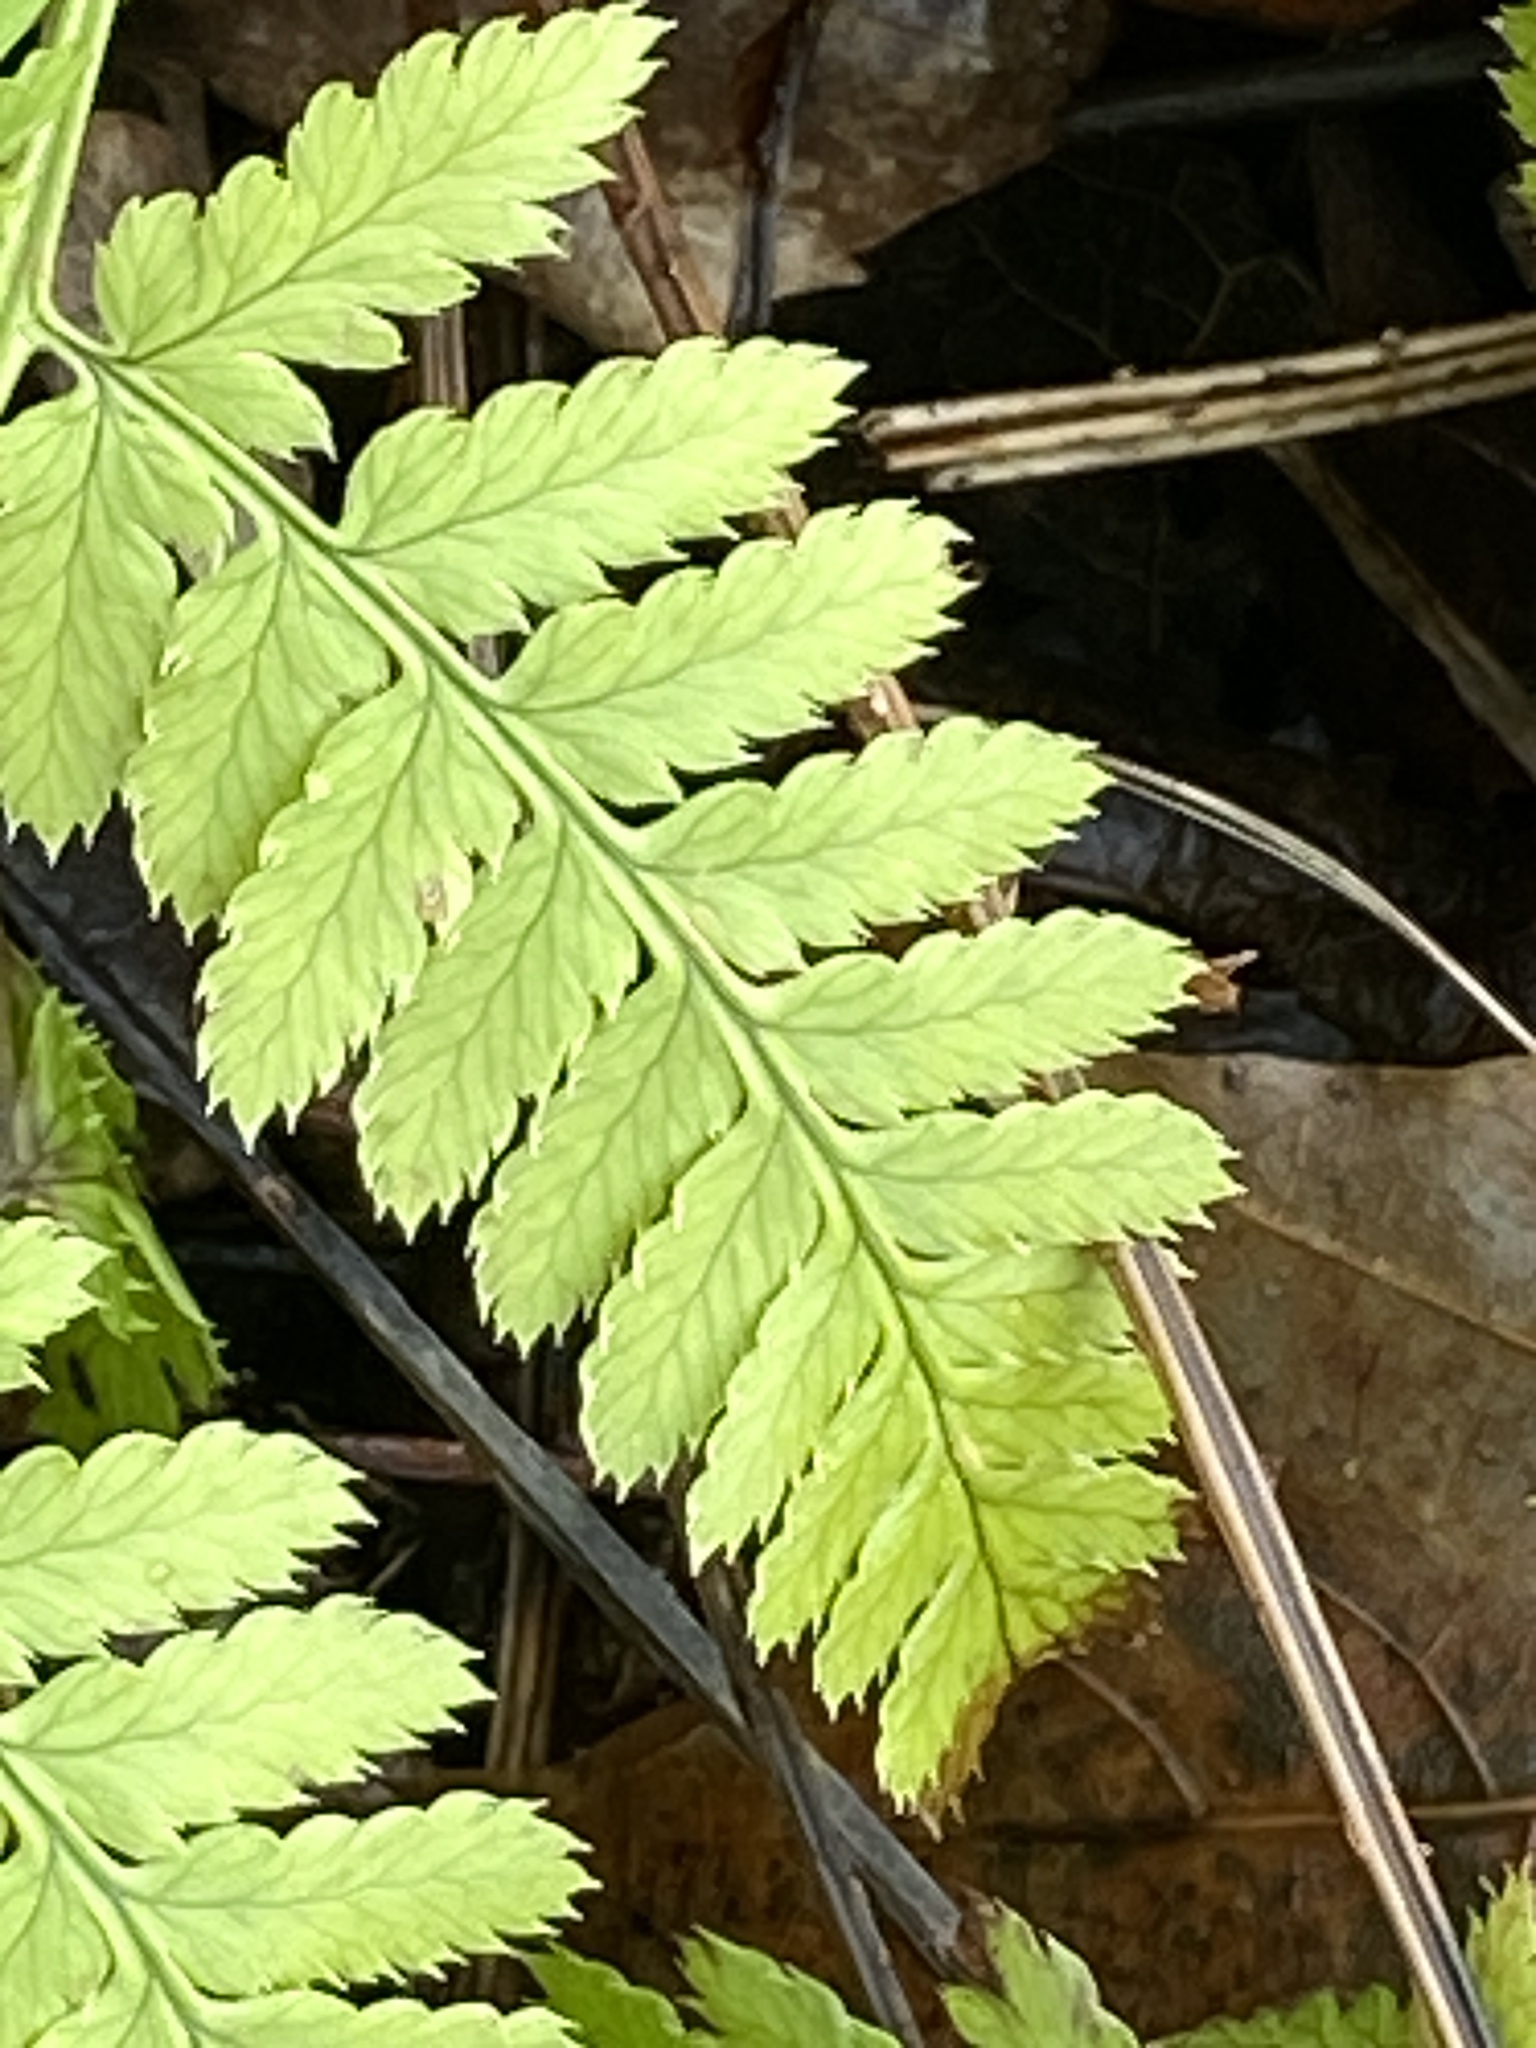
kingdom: Plantae
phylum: Tracheophyta
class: Polypodiopsida
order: Polypodiales
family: Dryopteridaceae
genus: Dryopteris
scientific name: Dryopteris carthusiana
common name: Narrow buckler-fern
